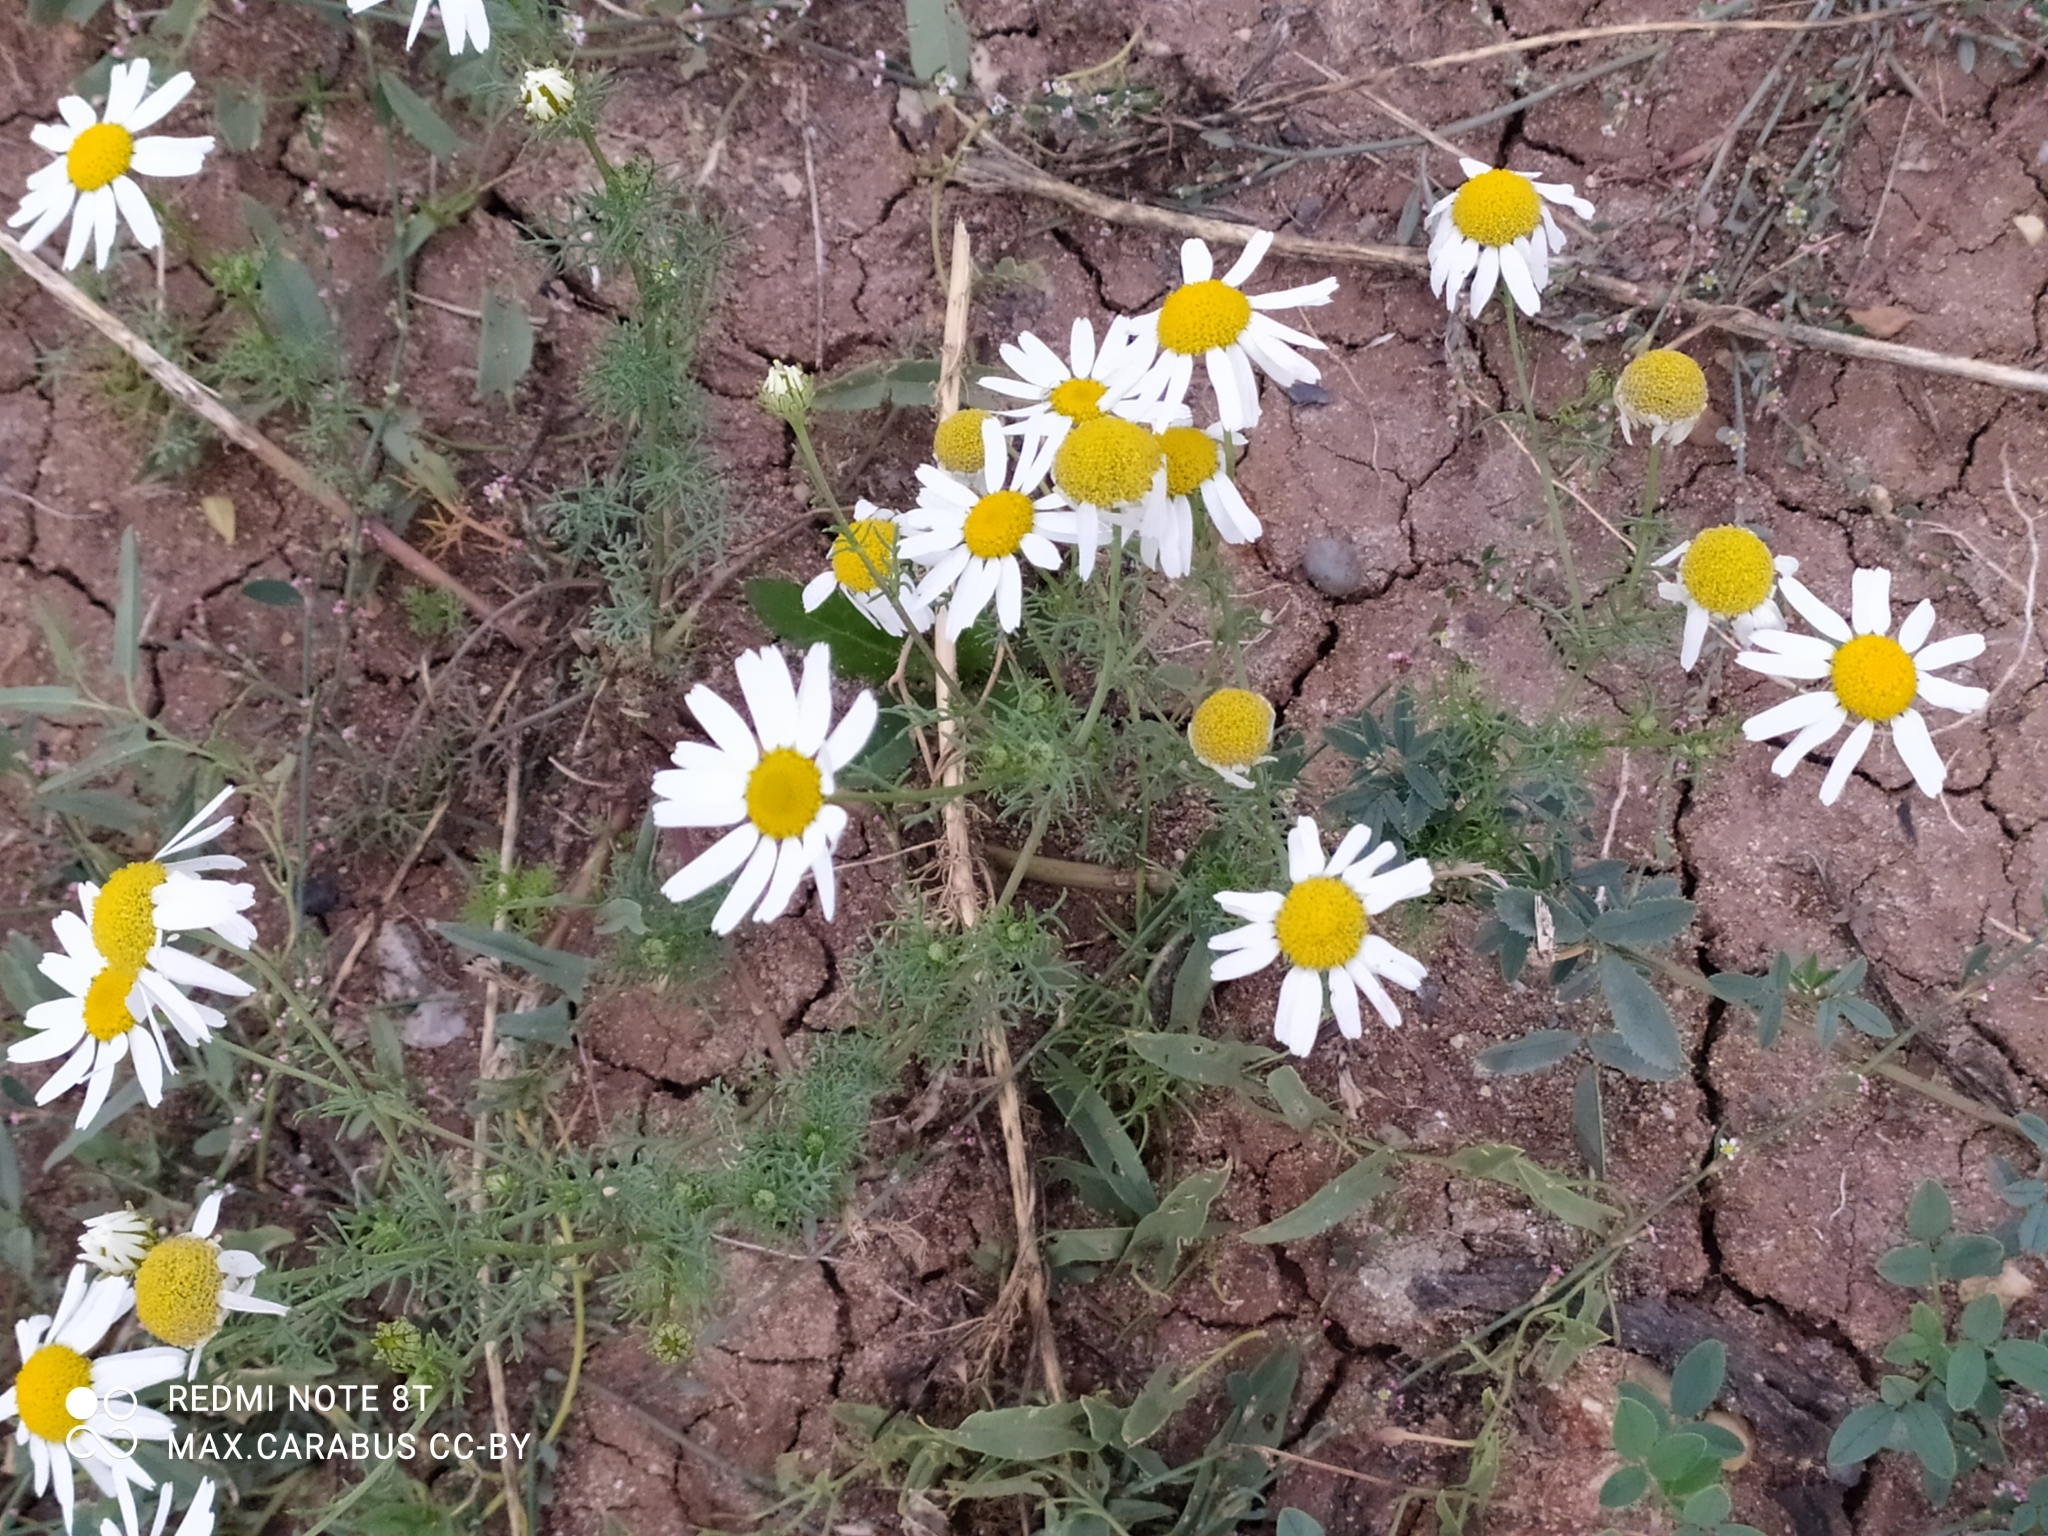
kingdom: Plantae
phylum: Tracheophyta
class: Magnoliopsida
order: Asterales
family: Asteraceae
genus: Tripleurospermum
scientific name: Tripleurospermum inodorum
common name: Scentless mayweed
